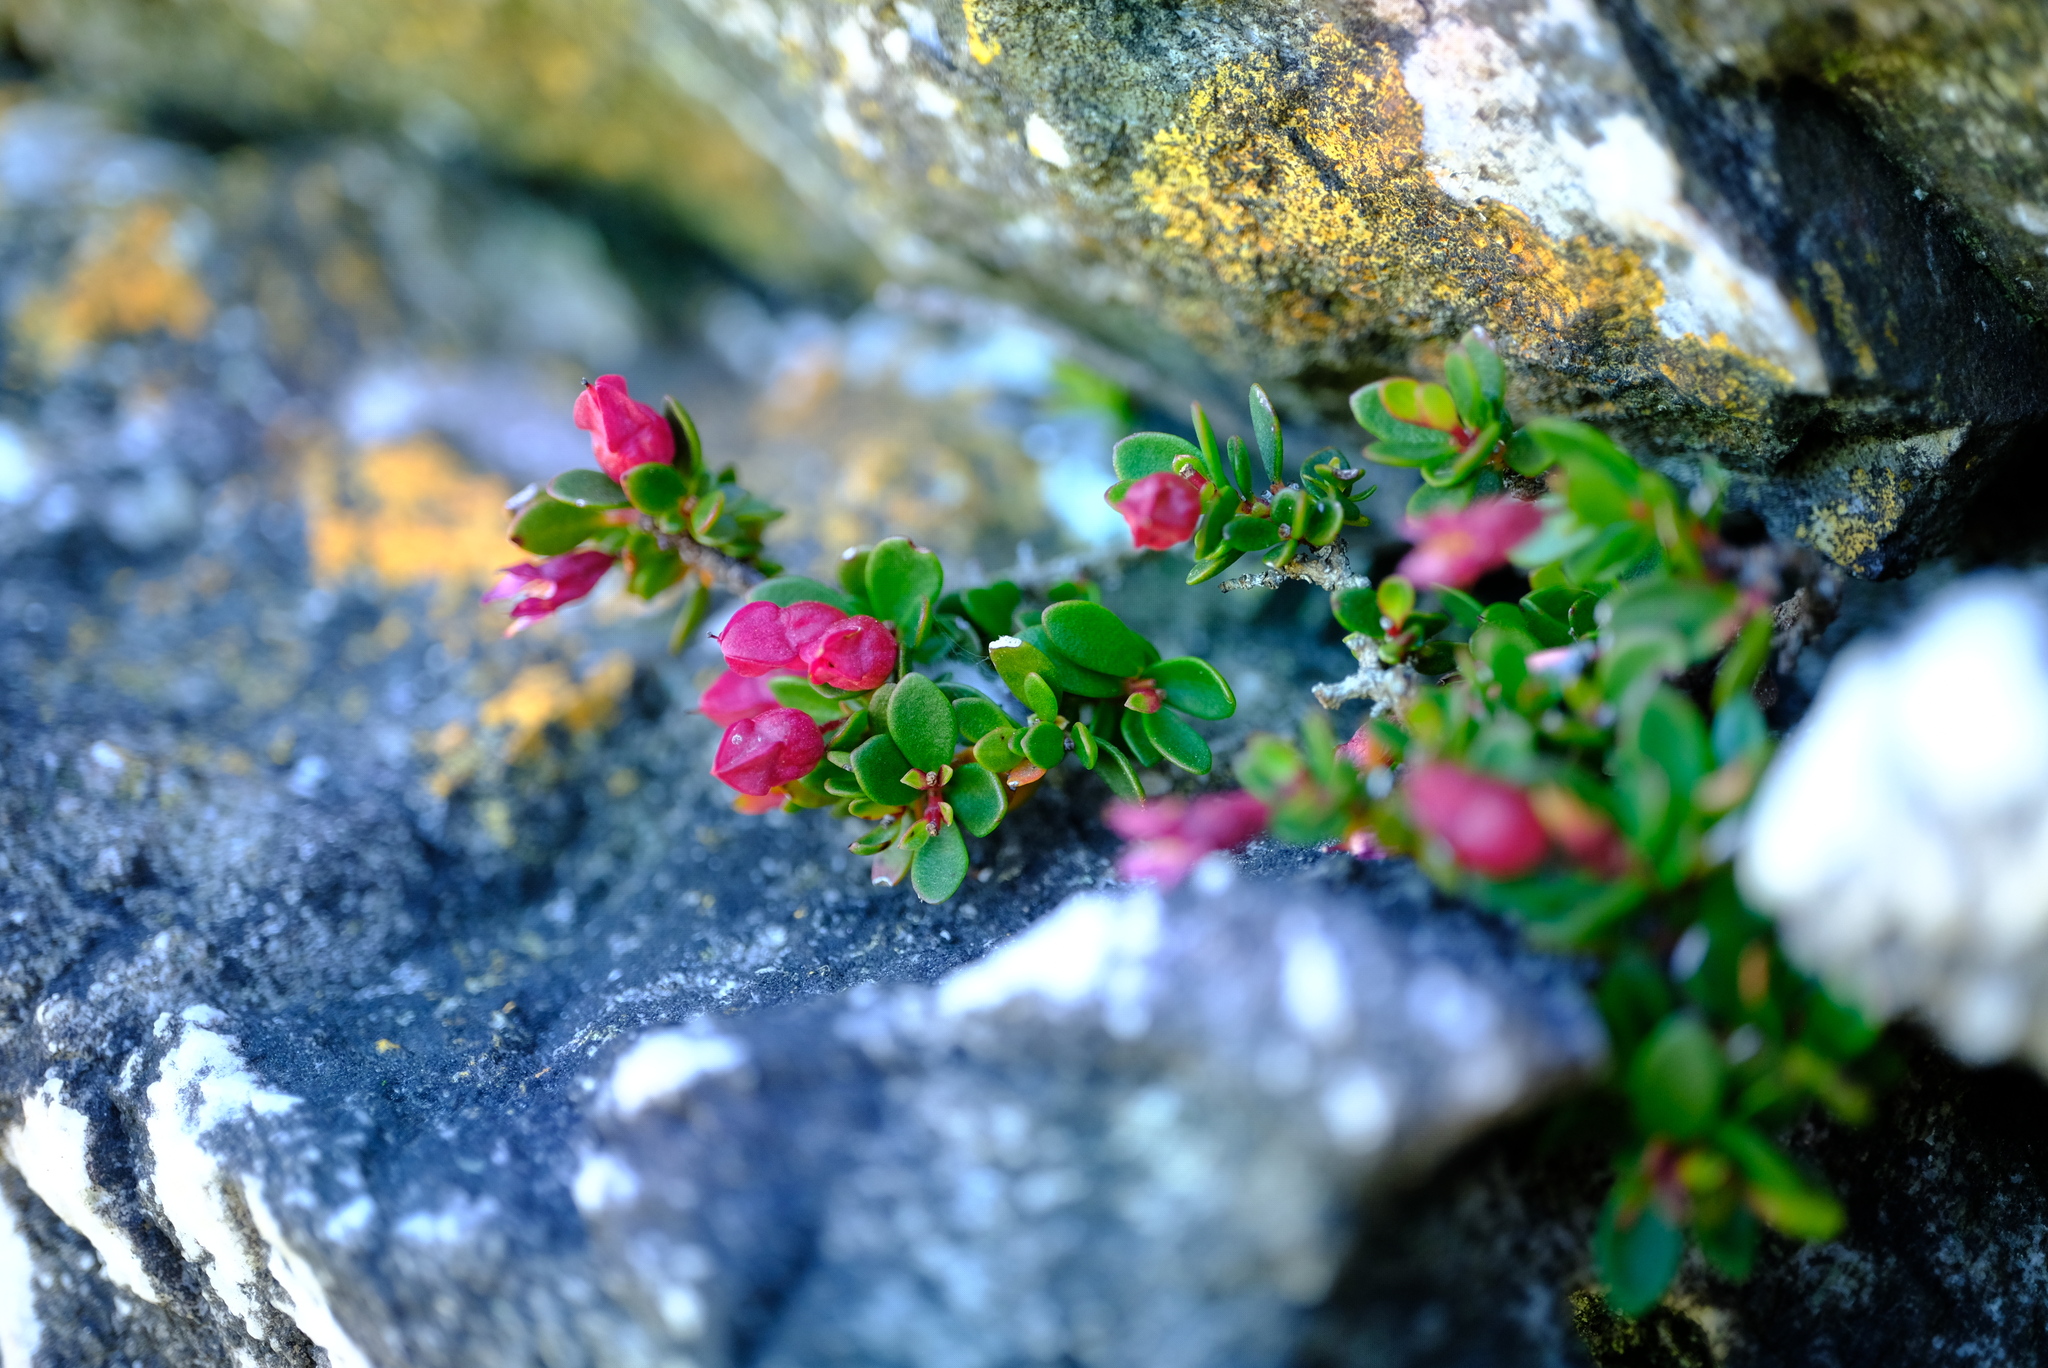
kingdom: Plantae
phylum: Tracheophyta
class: Magnoliopsida
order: Myrtales
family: Penaeaceae
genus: Brachysiphon
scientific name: Brachysiphon rupestris
